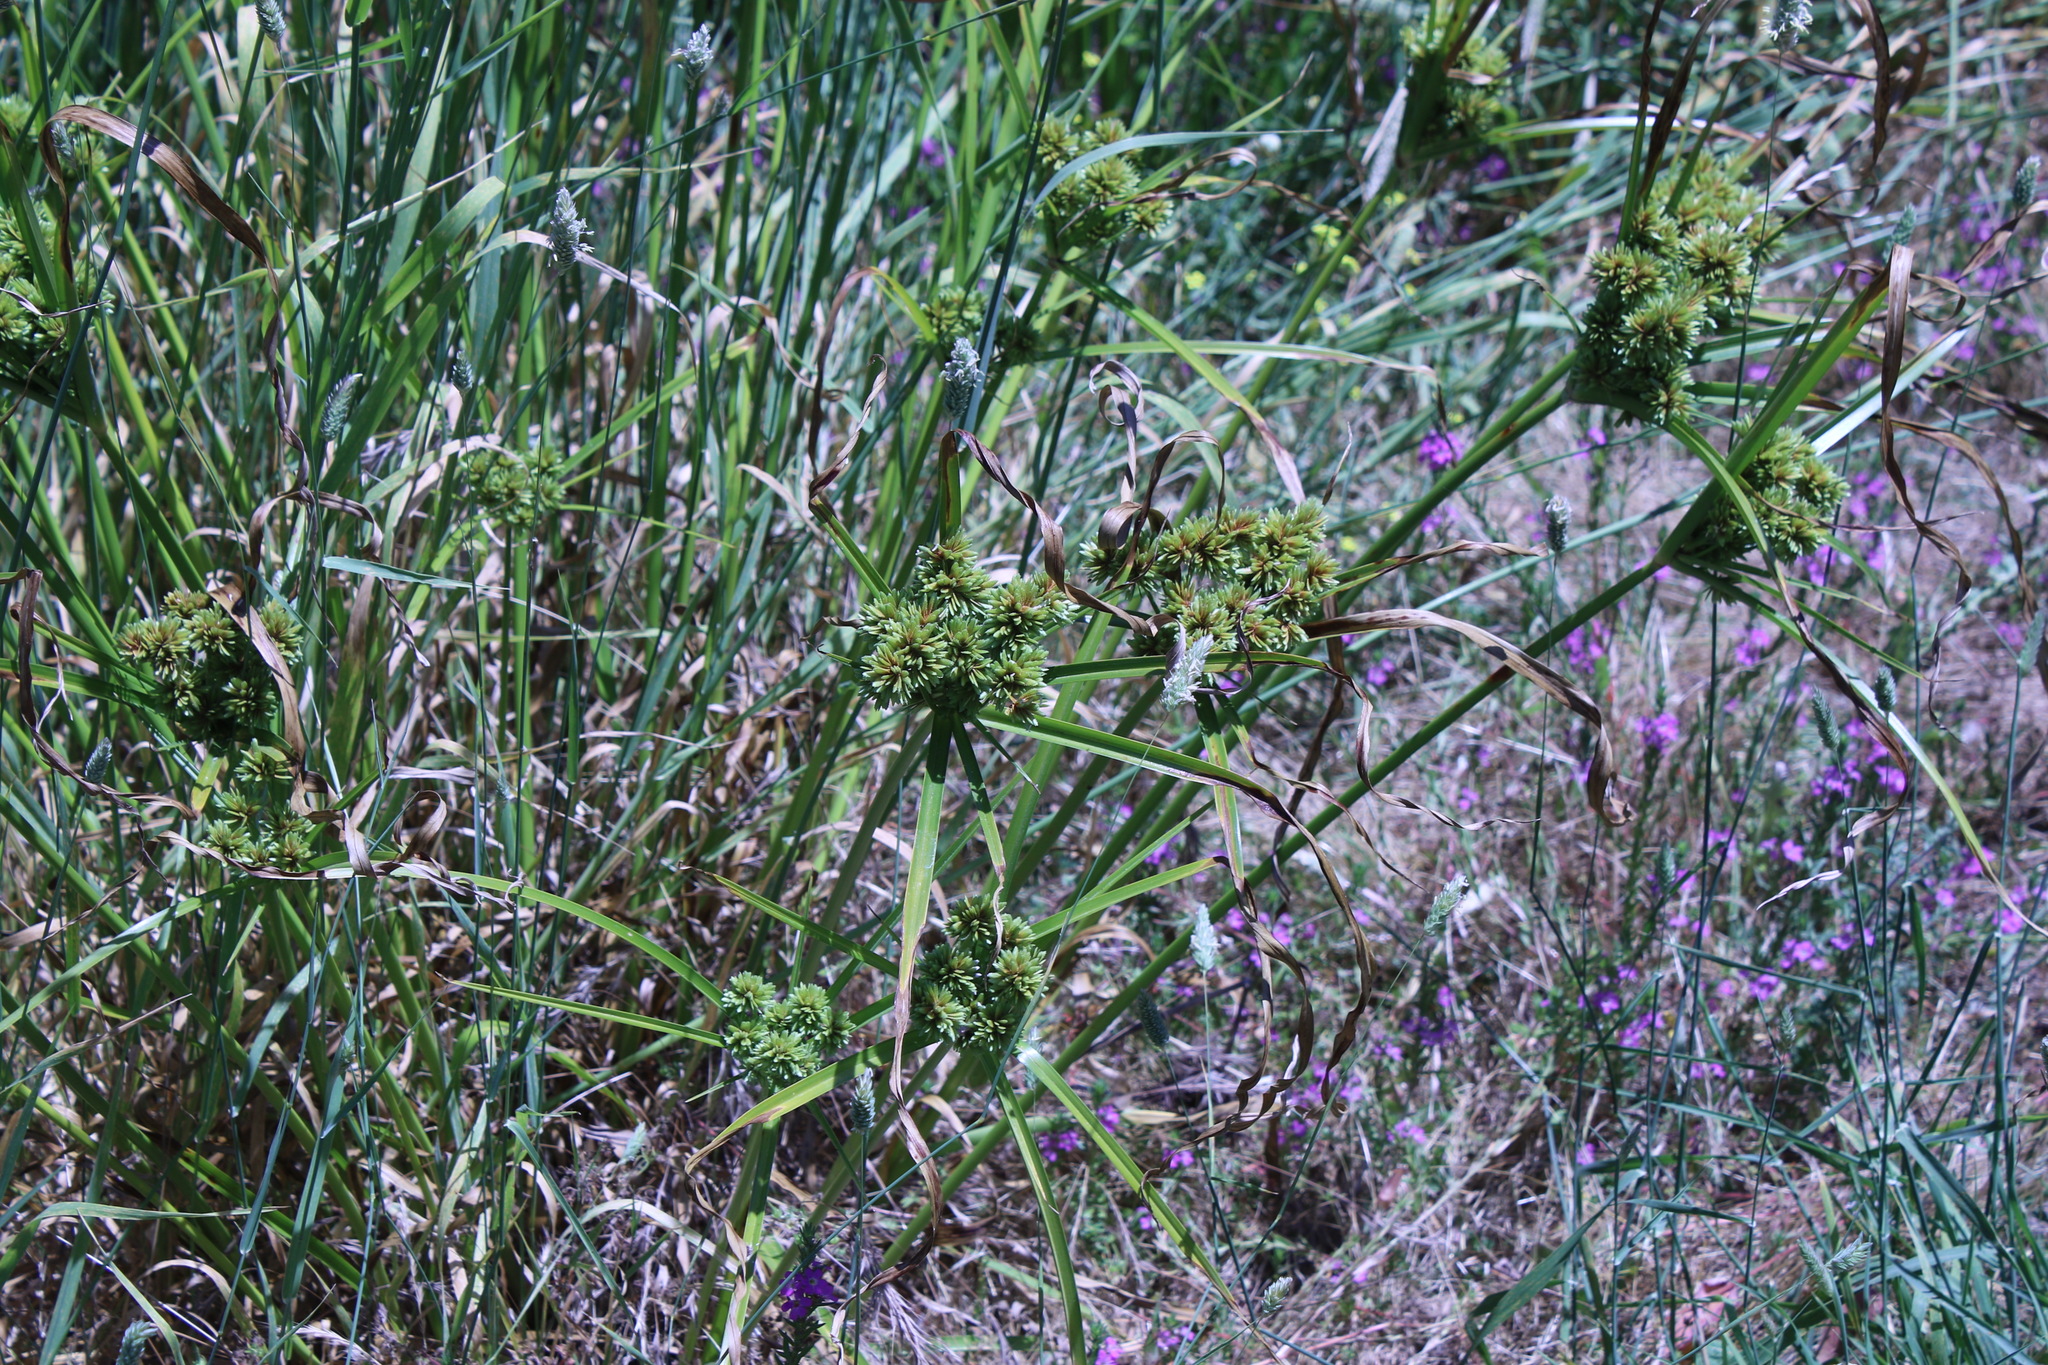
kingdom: Plantae
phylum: Tracheophyta
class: Liliopsida
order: Poales
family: Cyperaceae
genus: Cyperus
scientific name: Cyperus eragrostis
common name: Tall flatsedge
